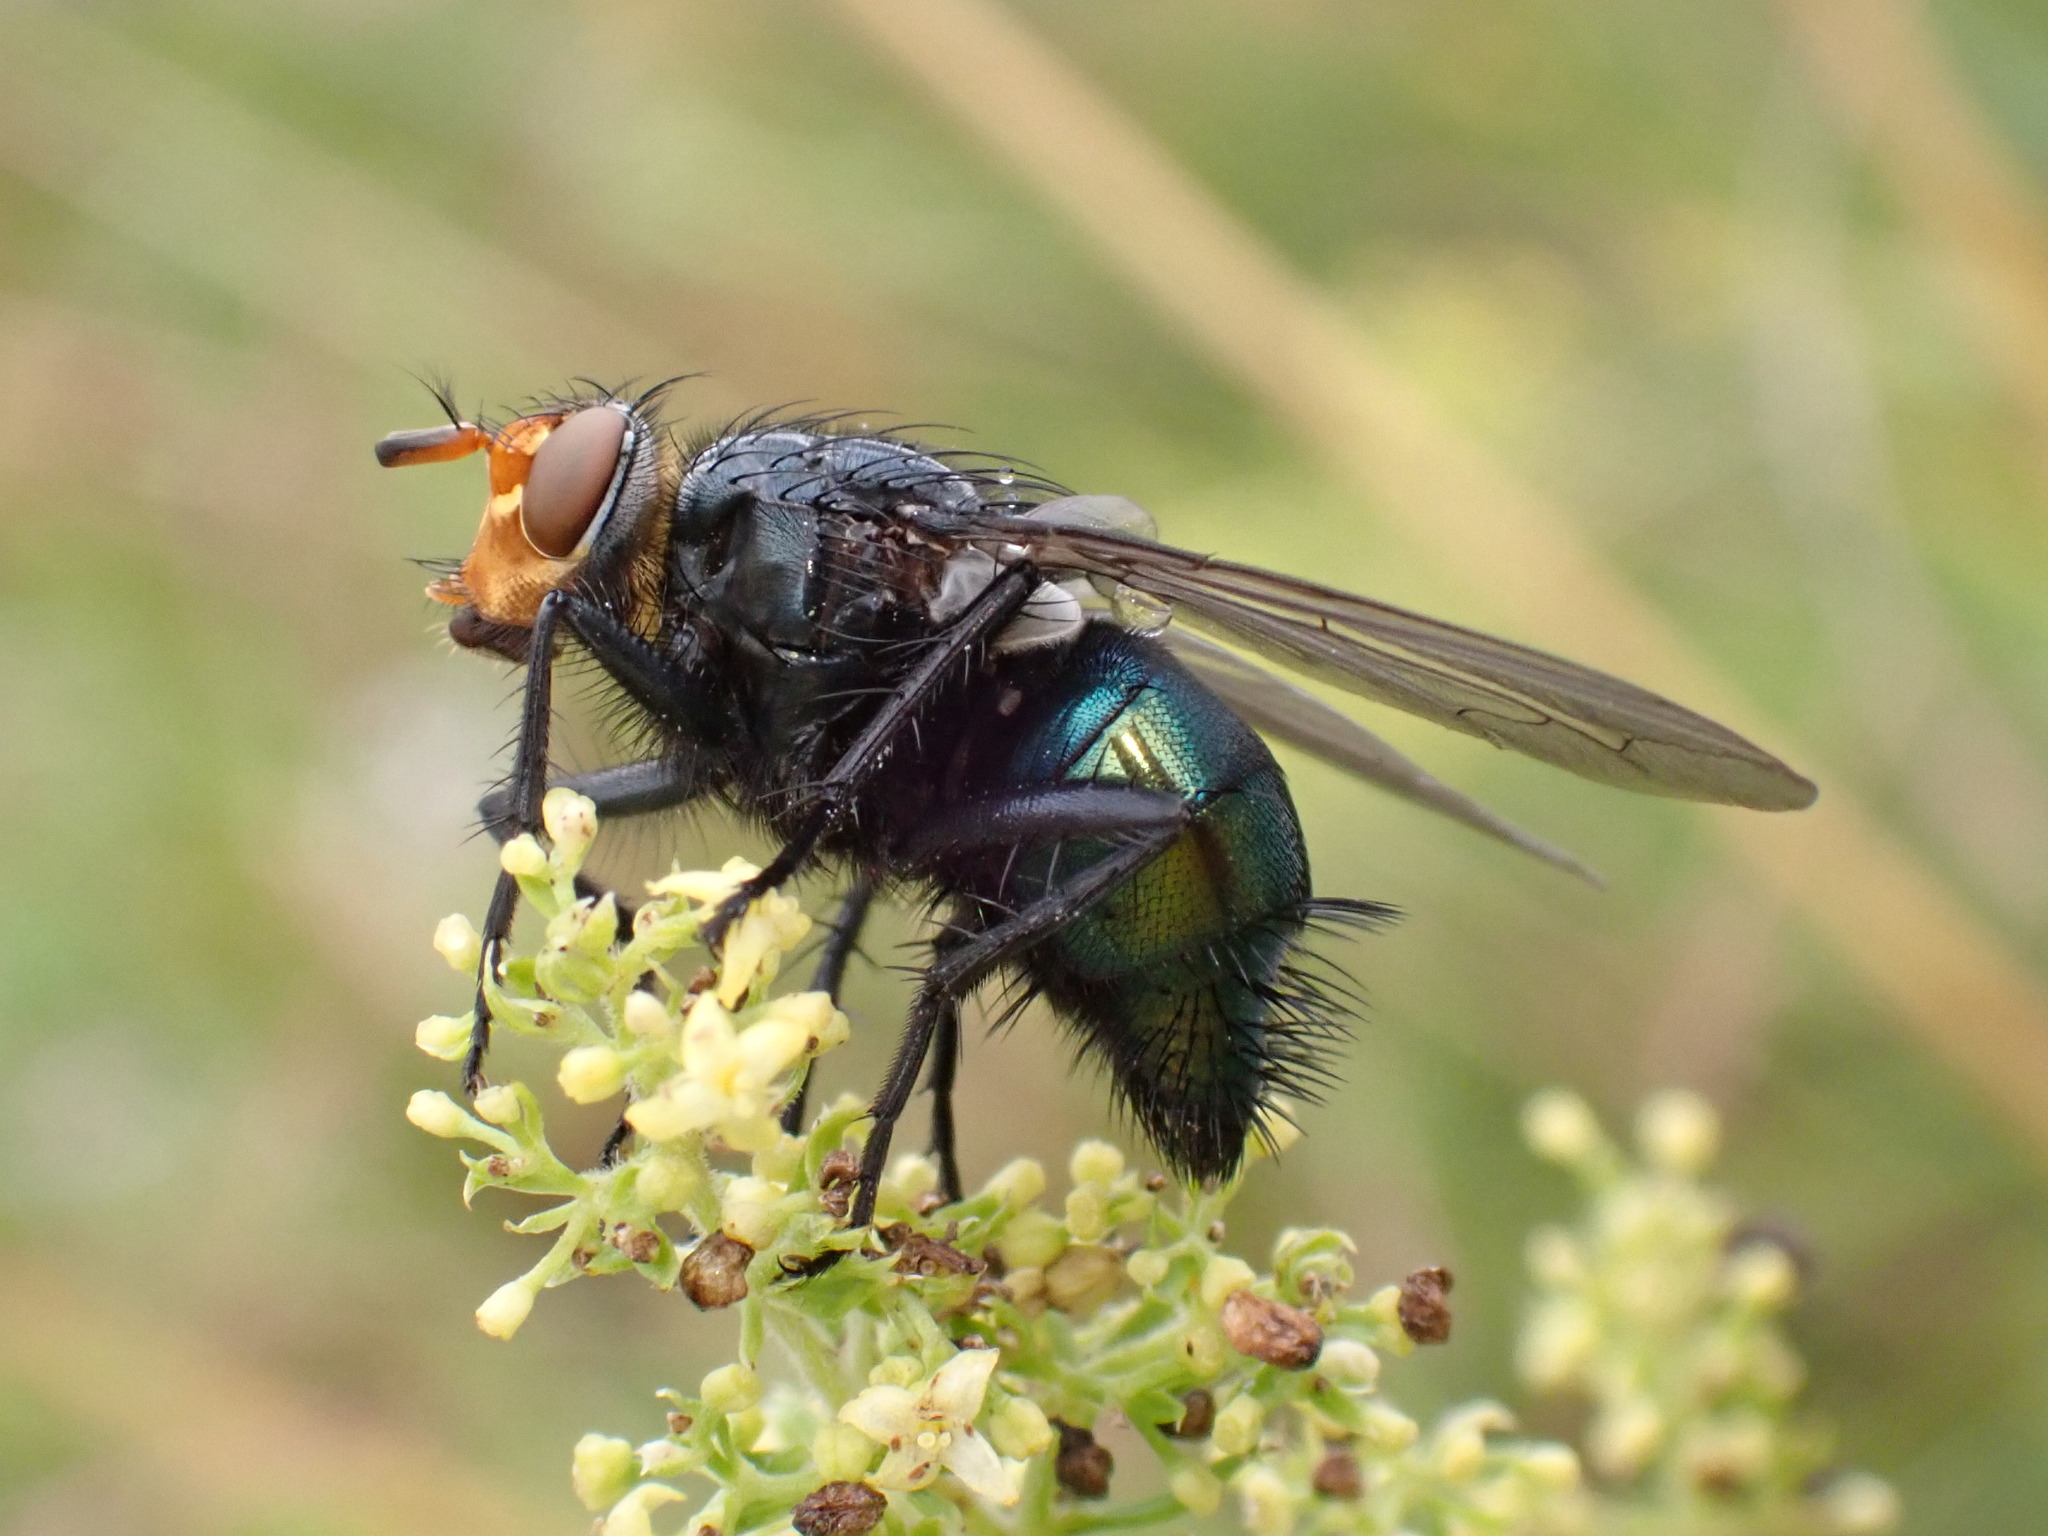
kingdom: Animalia
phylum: Arthropoda
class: Insecta
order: Diptera
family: Calliphoridae
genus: Cynomya
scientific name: Cynomya mortuorum
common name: Bluebottle blow fly
